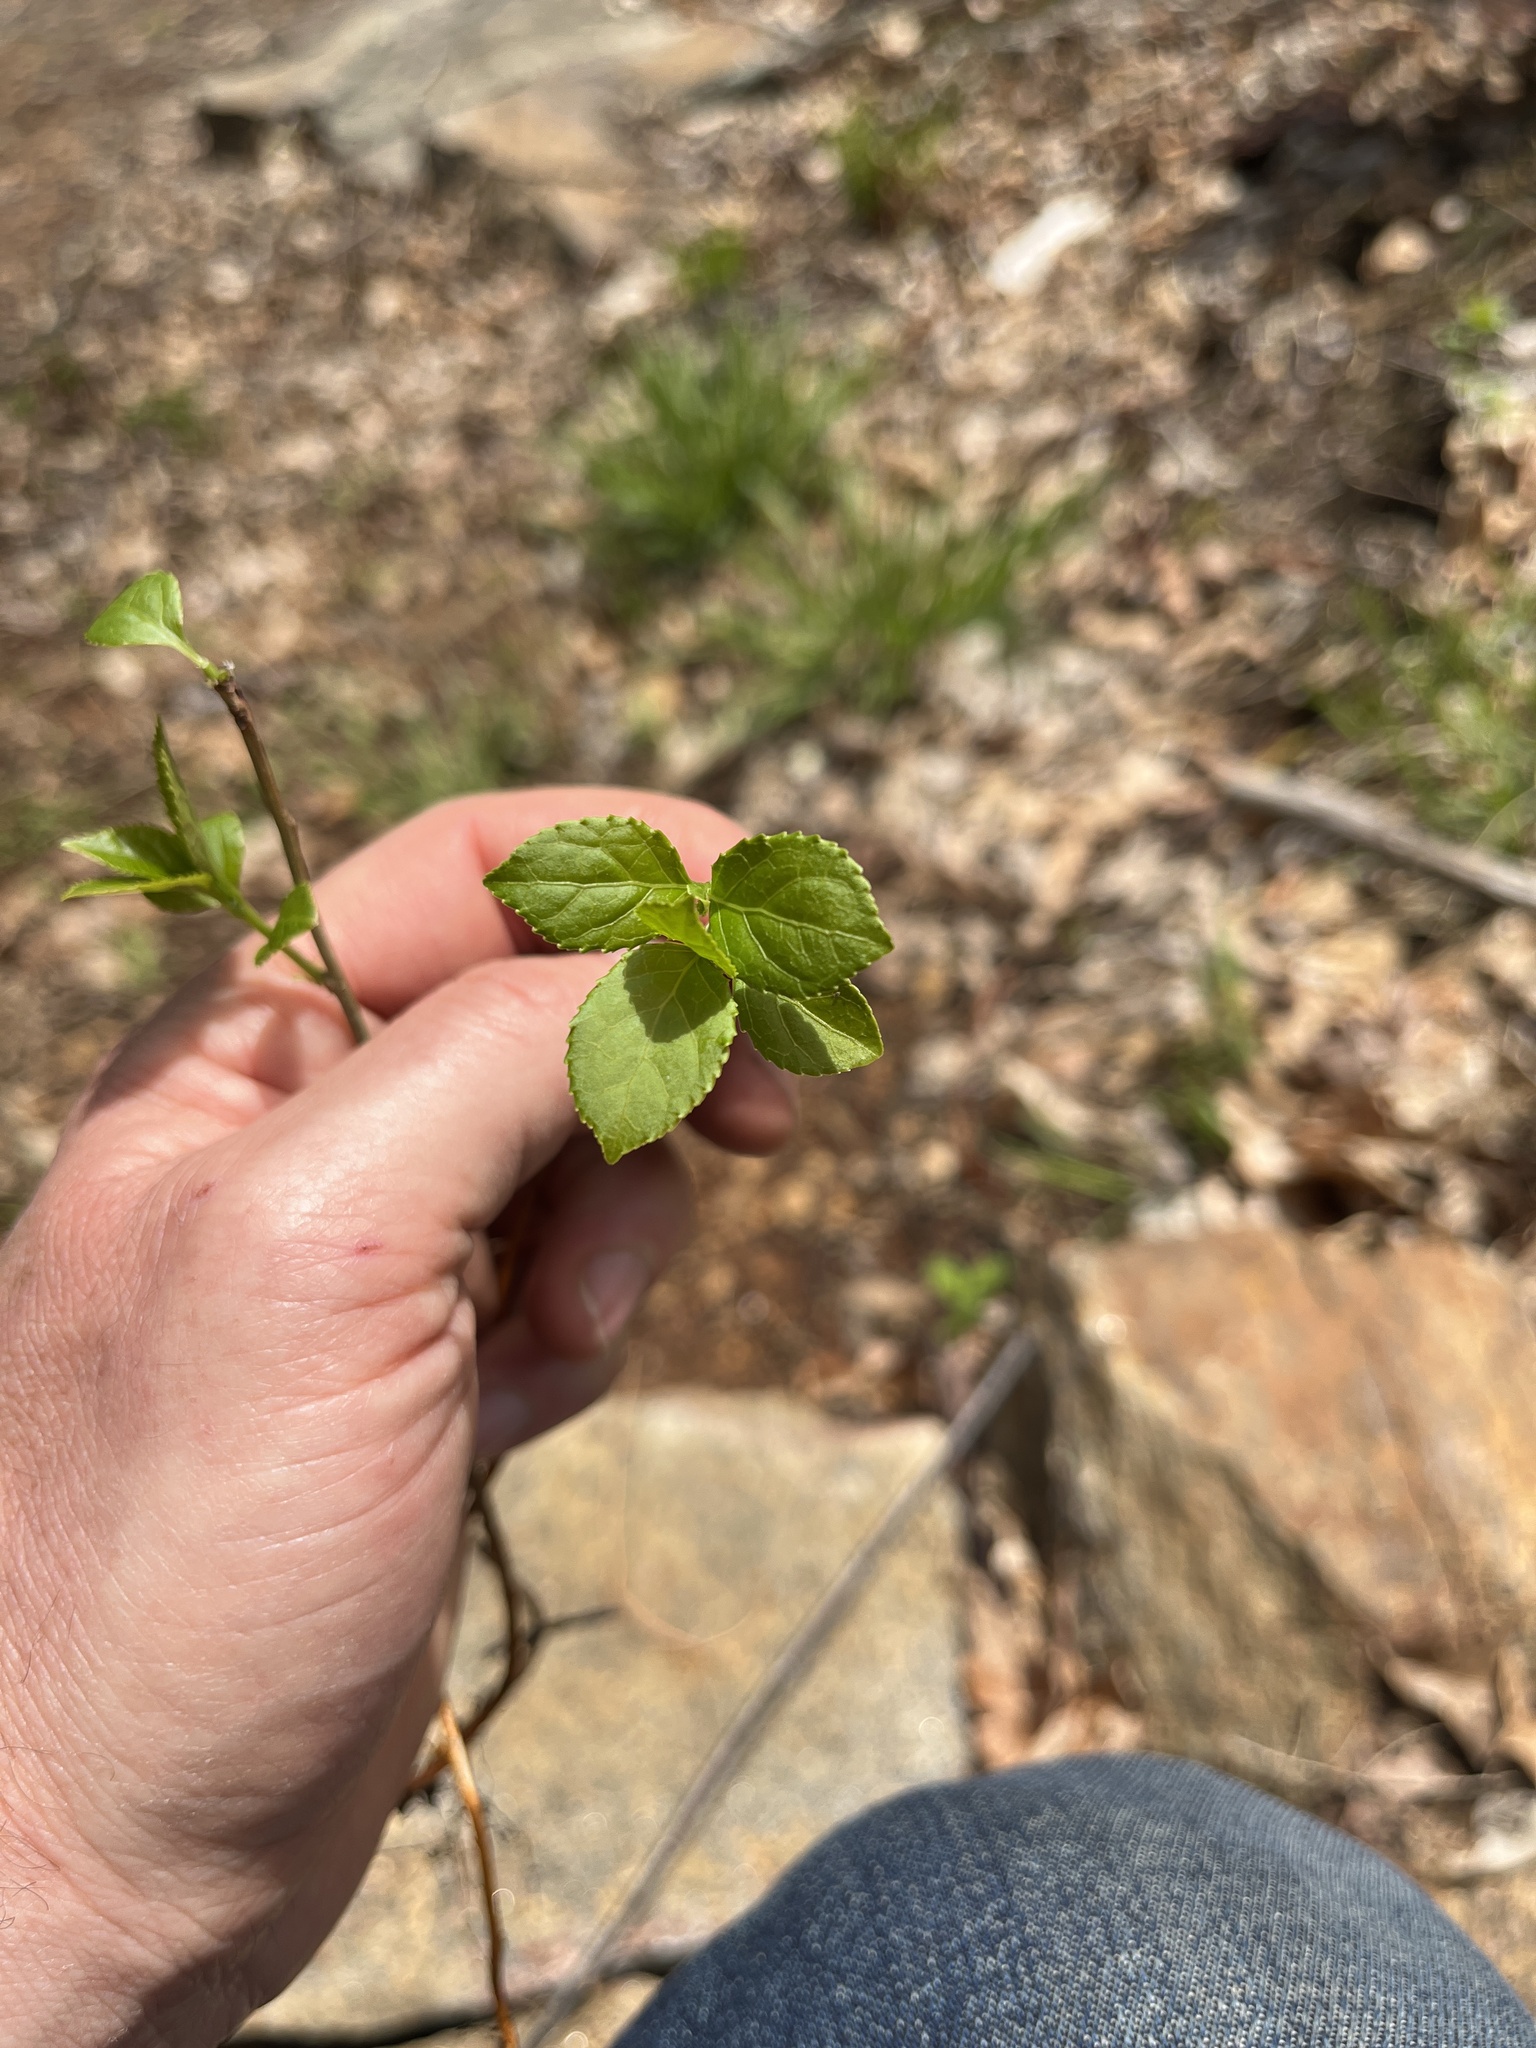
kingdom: Plantae
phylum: Tracheophyta
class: Magnoliopsida
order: Celastrales
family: Celastraceae
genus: Celastrus
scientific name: Celastrus orbiculatus
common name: Oriental bittersweet
